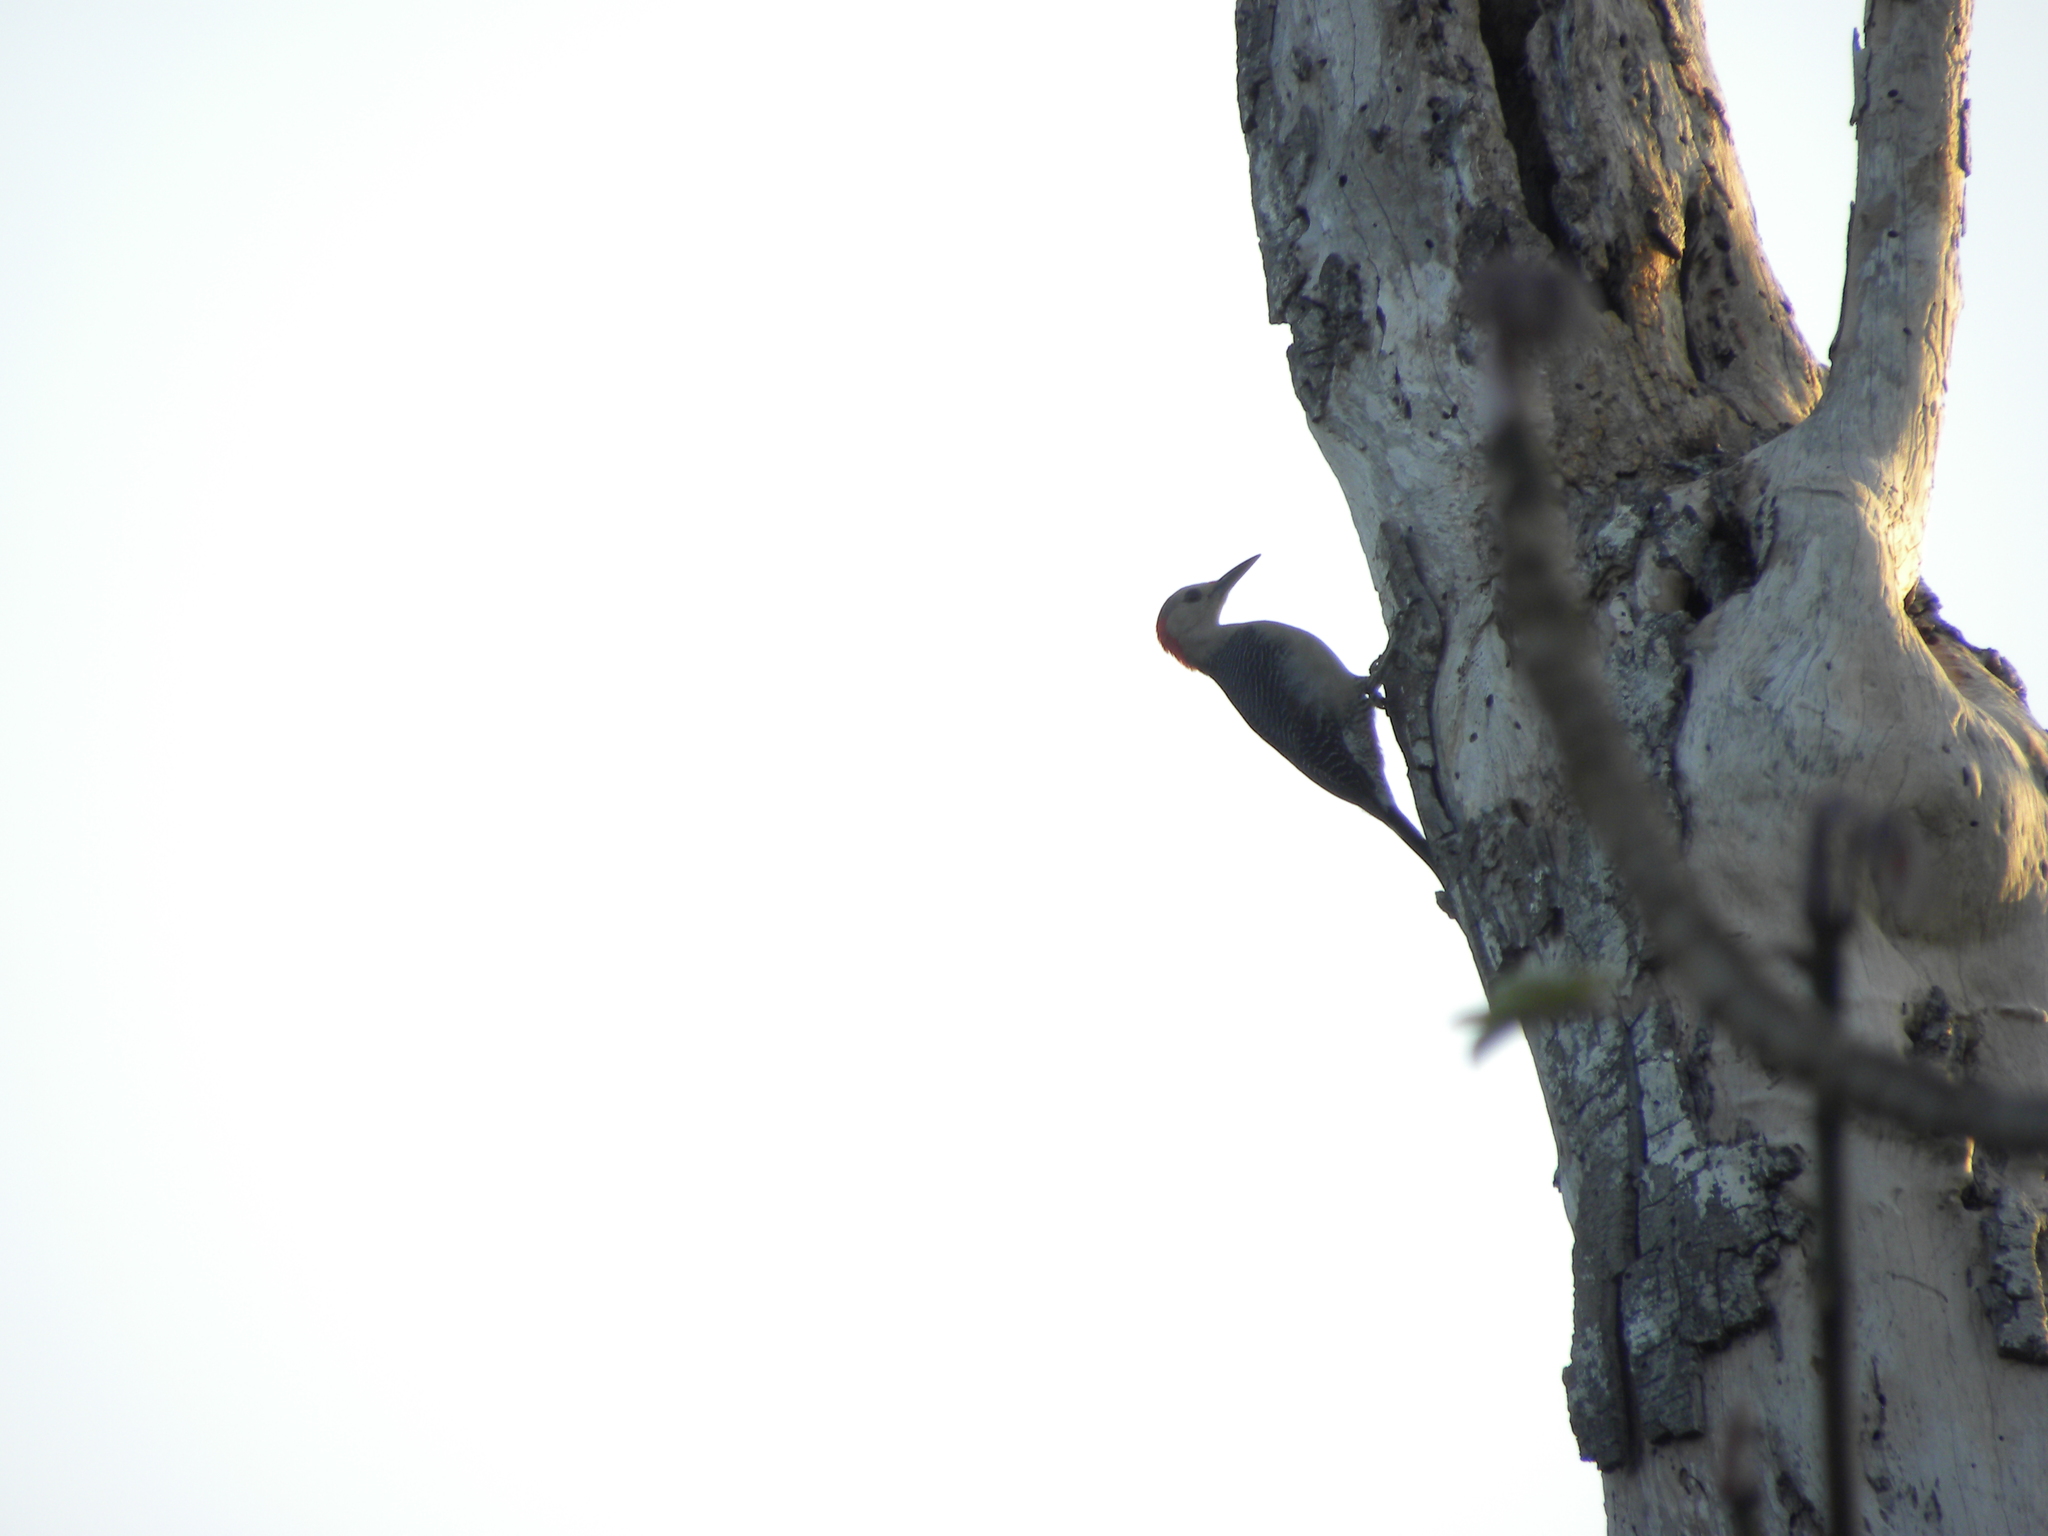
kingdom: Animalia
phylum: Chordata
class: Aves
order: Piciformes
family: Picidae
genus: Melanerpes
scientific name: Melanerpes santacruzi
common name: Velasquez's woodpecker
